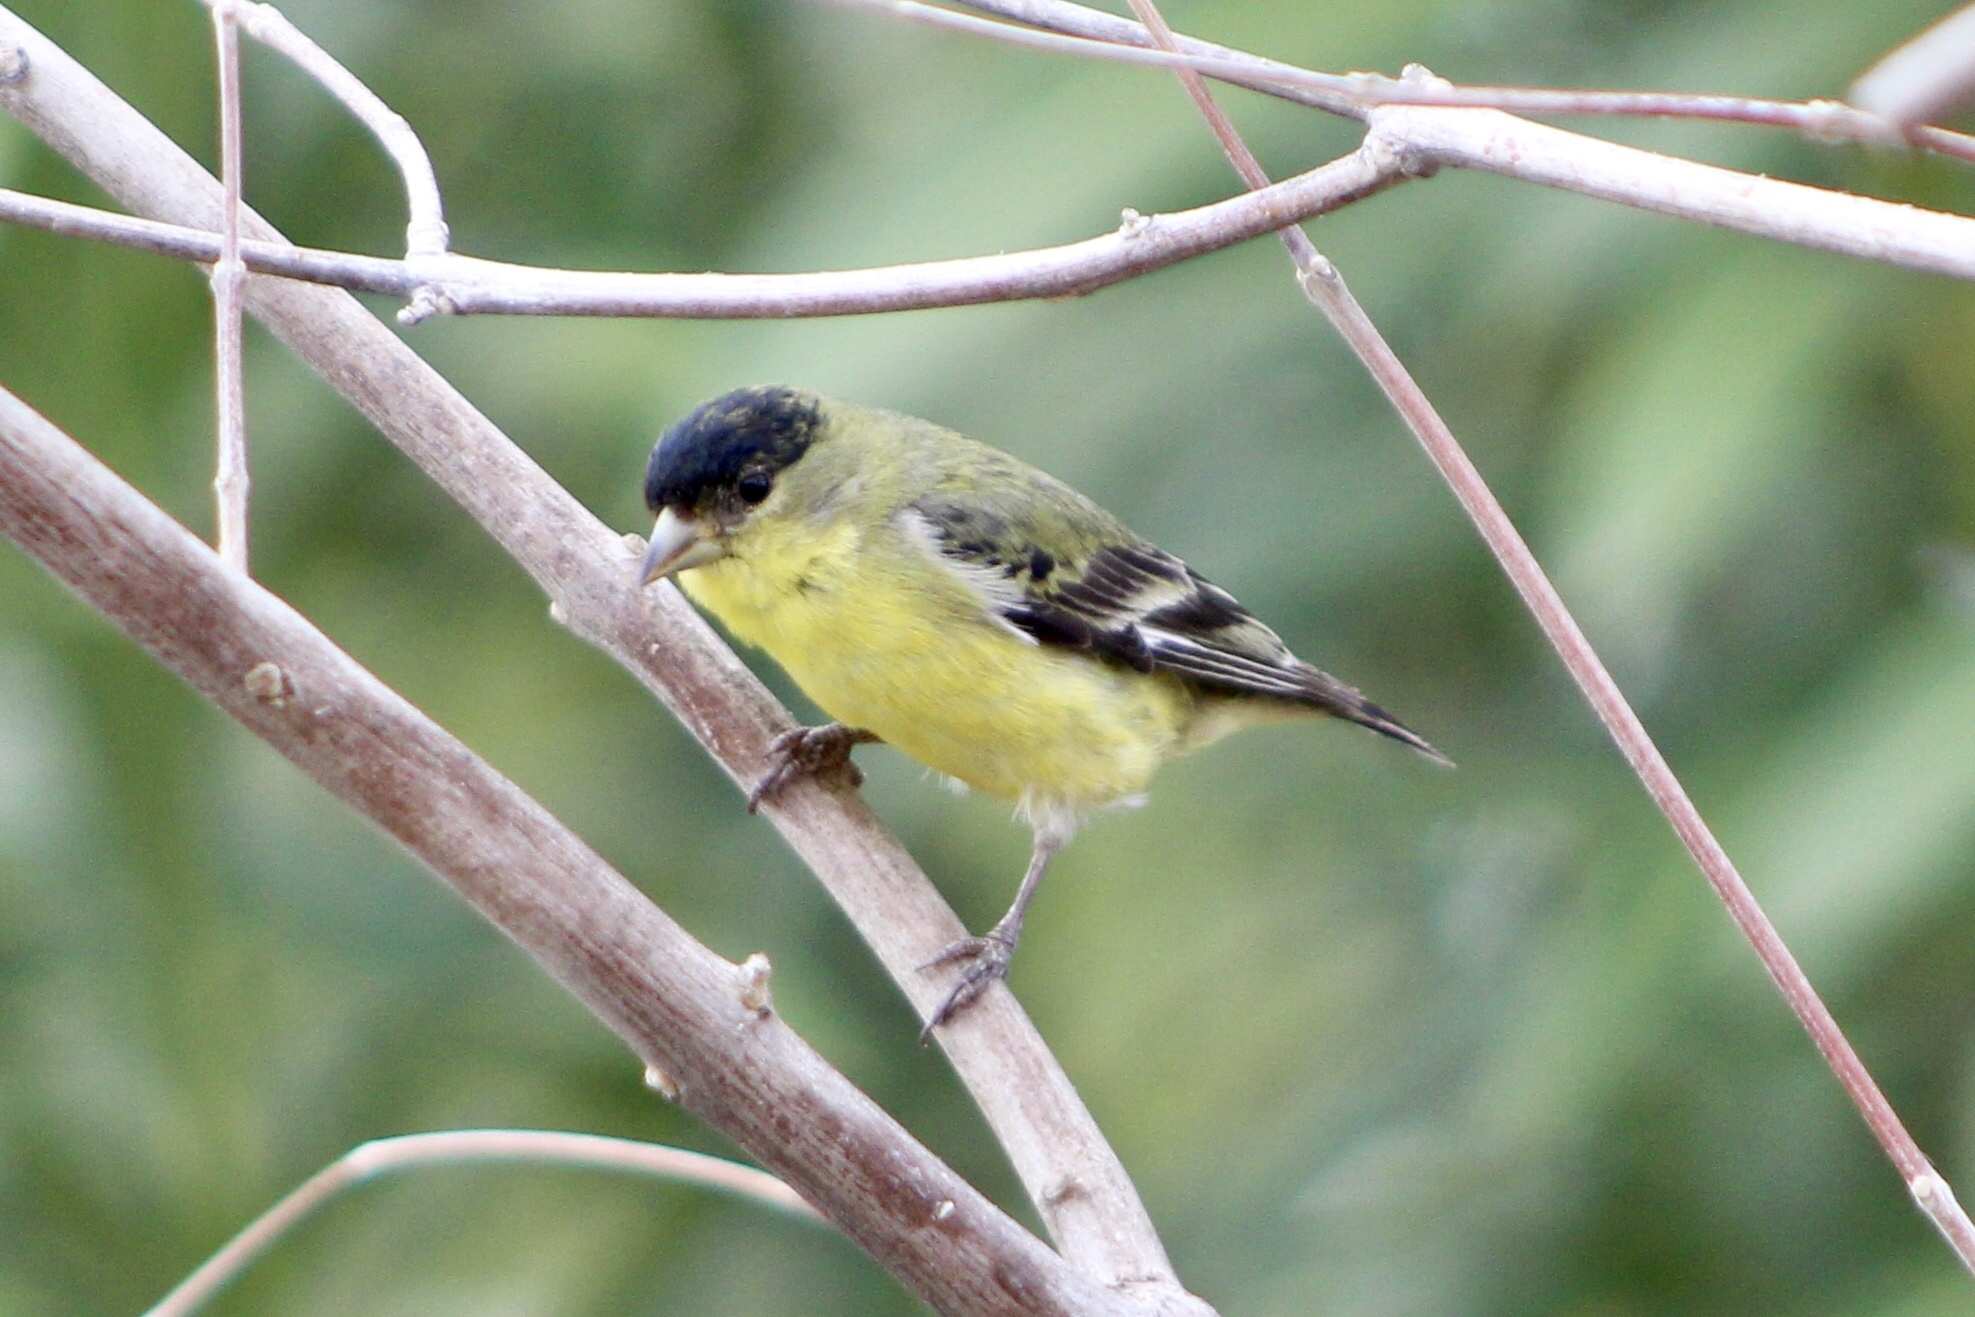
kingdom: Animalia
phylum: Chordata
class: Aves
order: Passeriformes
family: Fringillidae
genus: Spinus
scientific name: Spinus psaltria
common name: Lesser goldfinch
